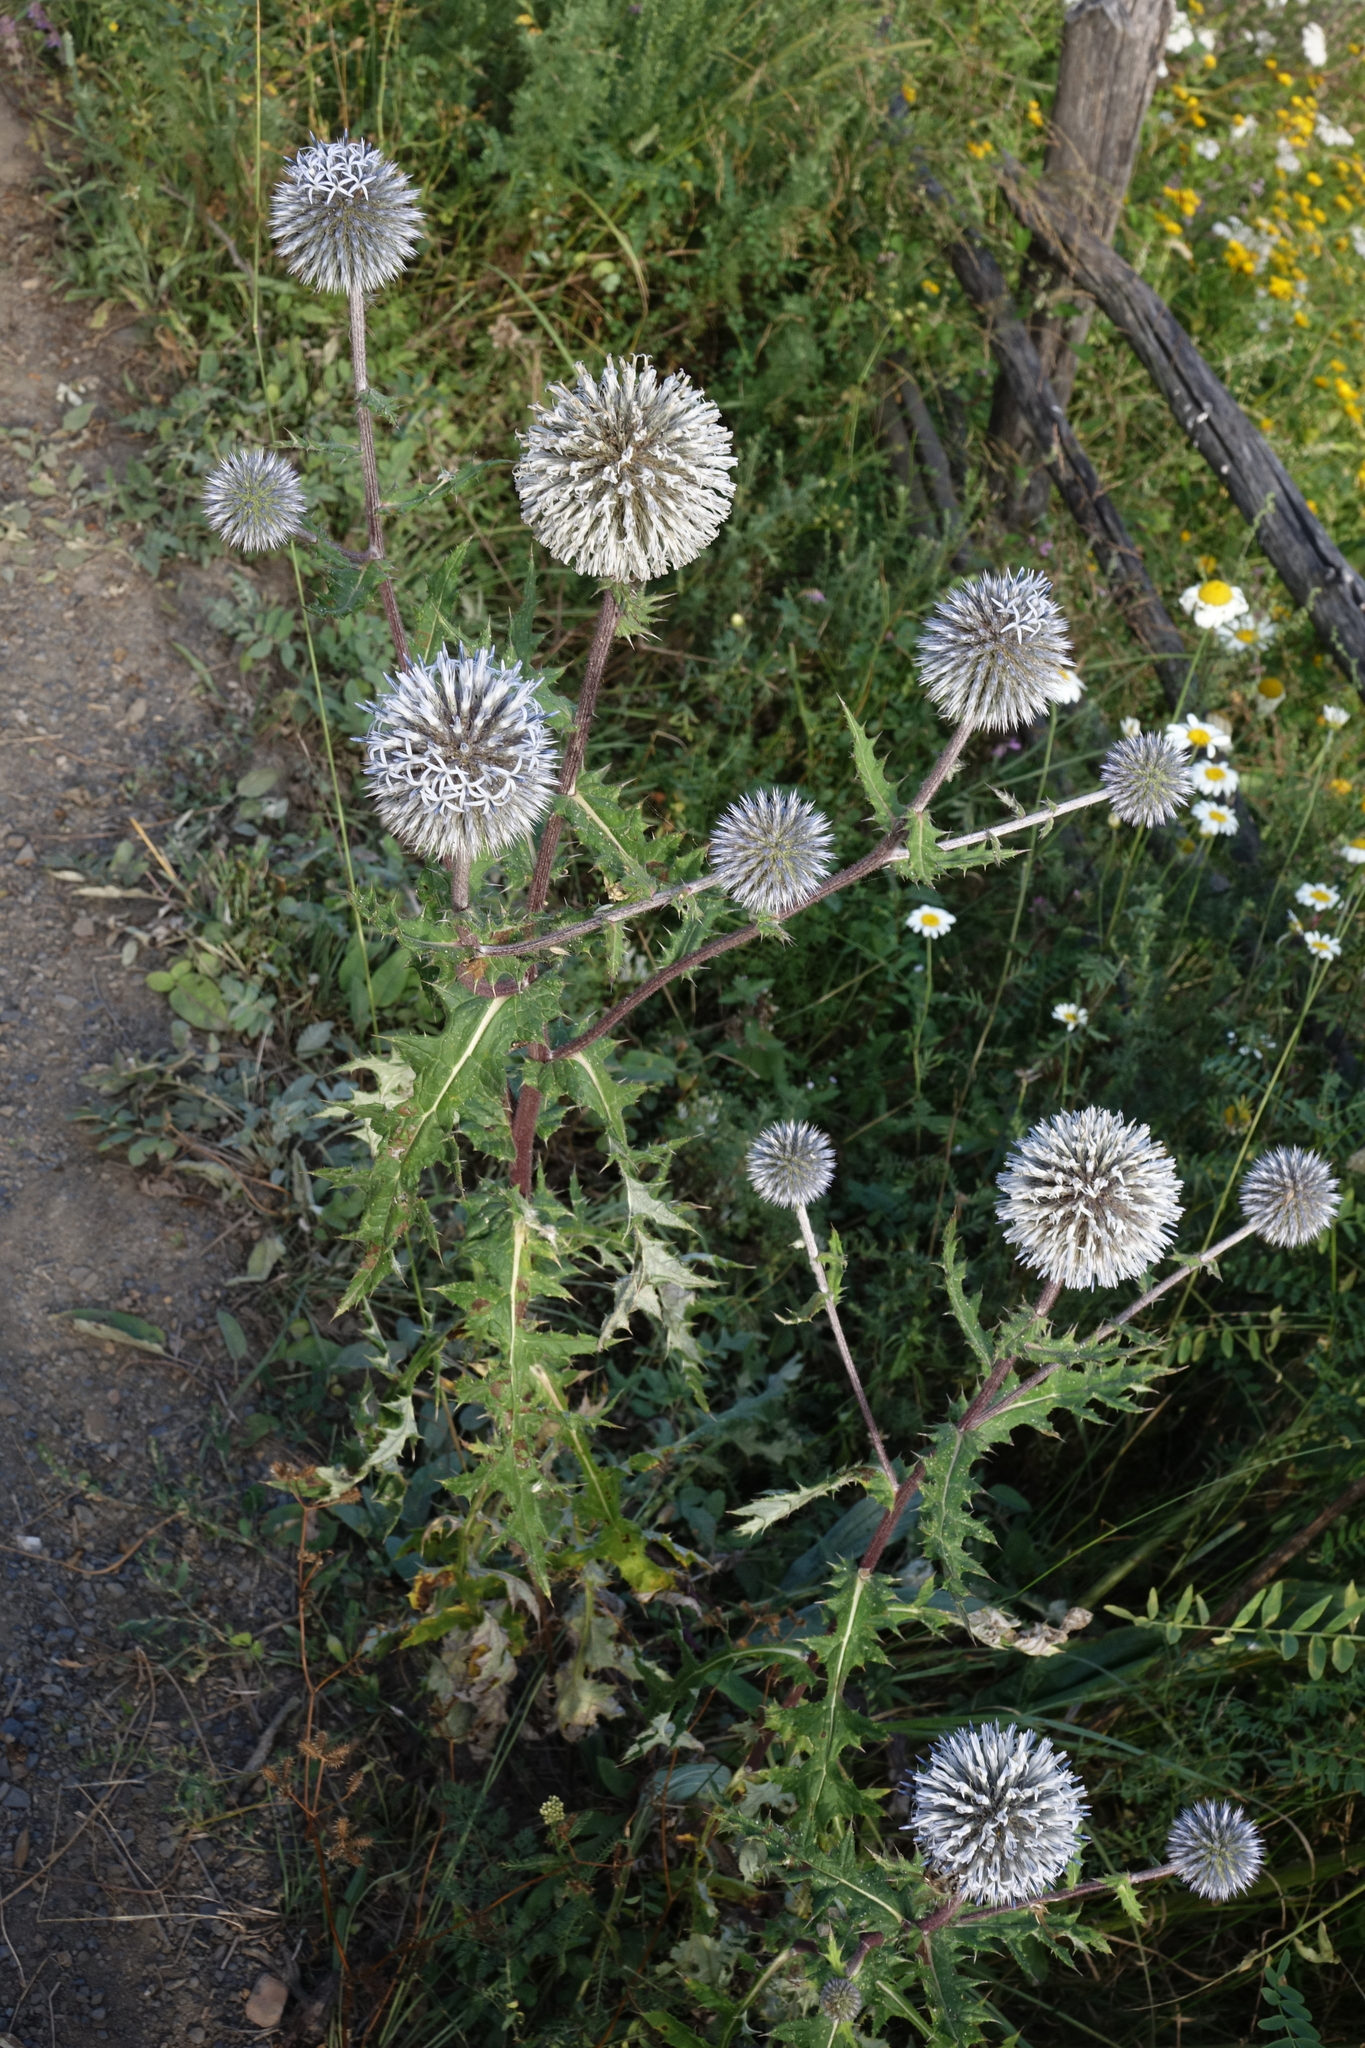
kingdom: Plantae
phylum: Tracheophyta
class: Magnoliopsida
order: Asterales
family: Asteraceae
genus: Echinops
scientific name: Echinops sphaerocephalus
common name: Glandular globe-thistle
